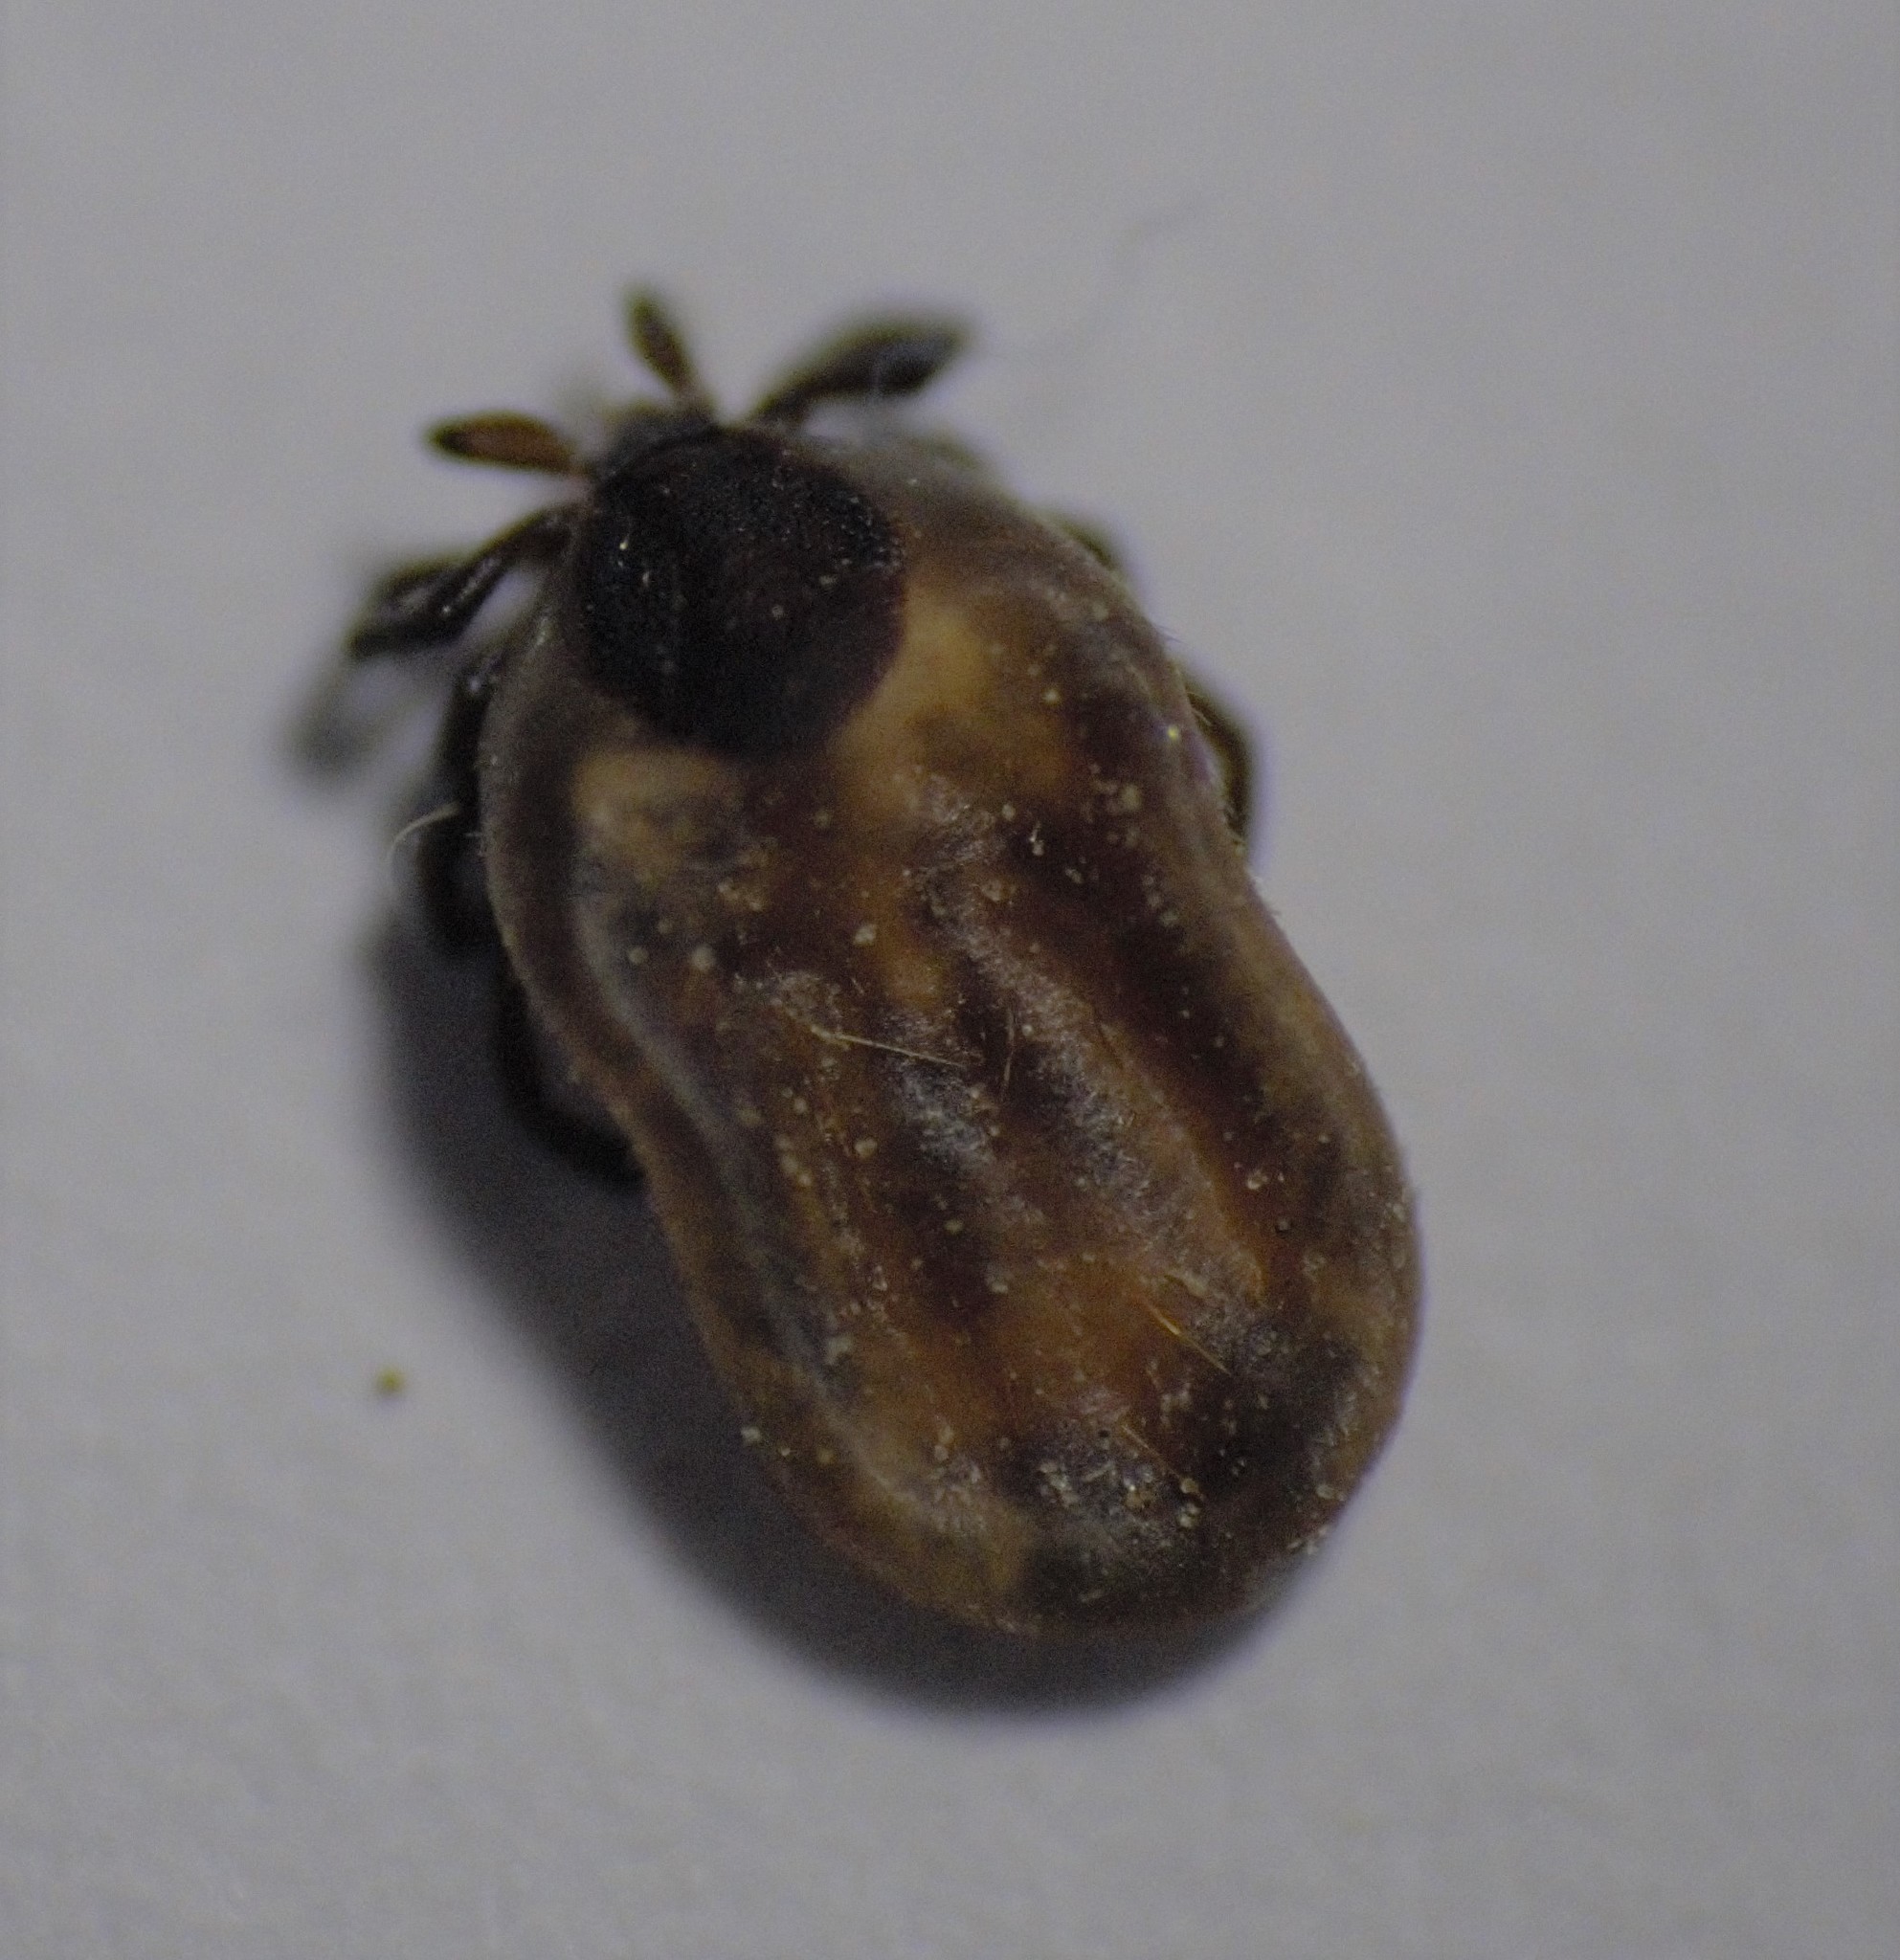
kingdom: Animalia
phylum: Arthropoda
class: Arachnida
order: Ixodida
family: Ixodidae
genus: Ixodes
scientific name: Ixodes scapularis
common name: Black legged tick
